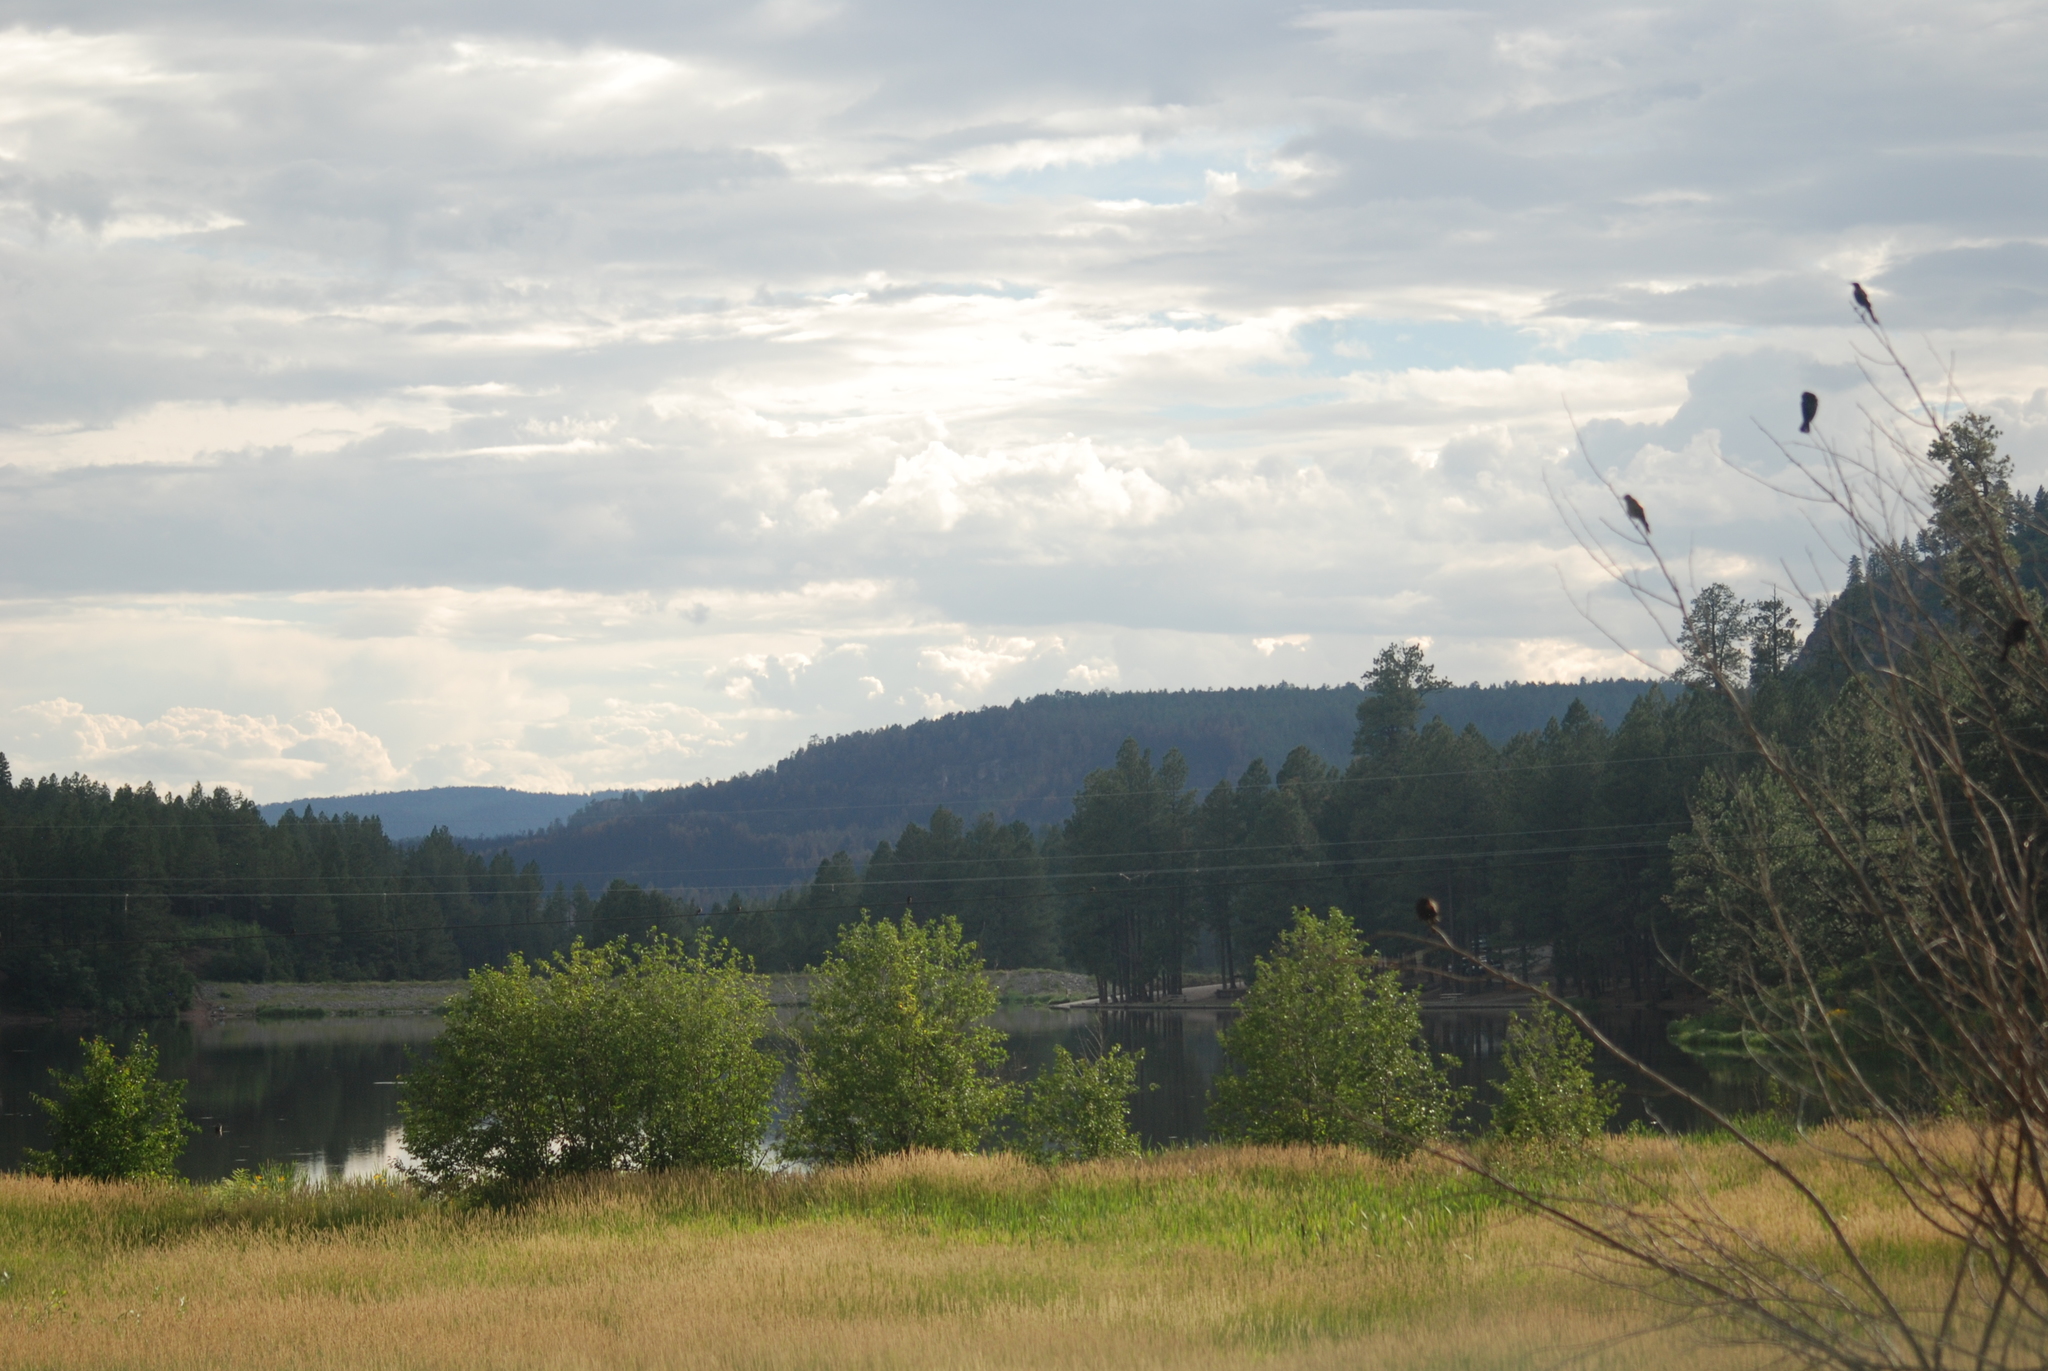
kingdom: Animalia
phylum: Chordata
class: Aves
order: Passeriformes
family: Icteridae
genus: Agelaius
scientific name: Agelaius phoeniceus
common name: Red-winged blackbird
